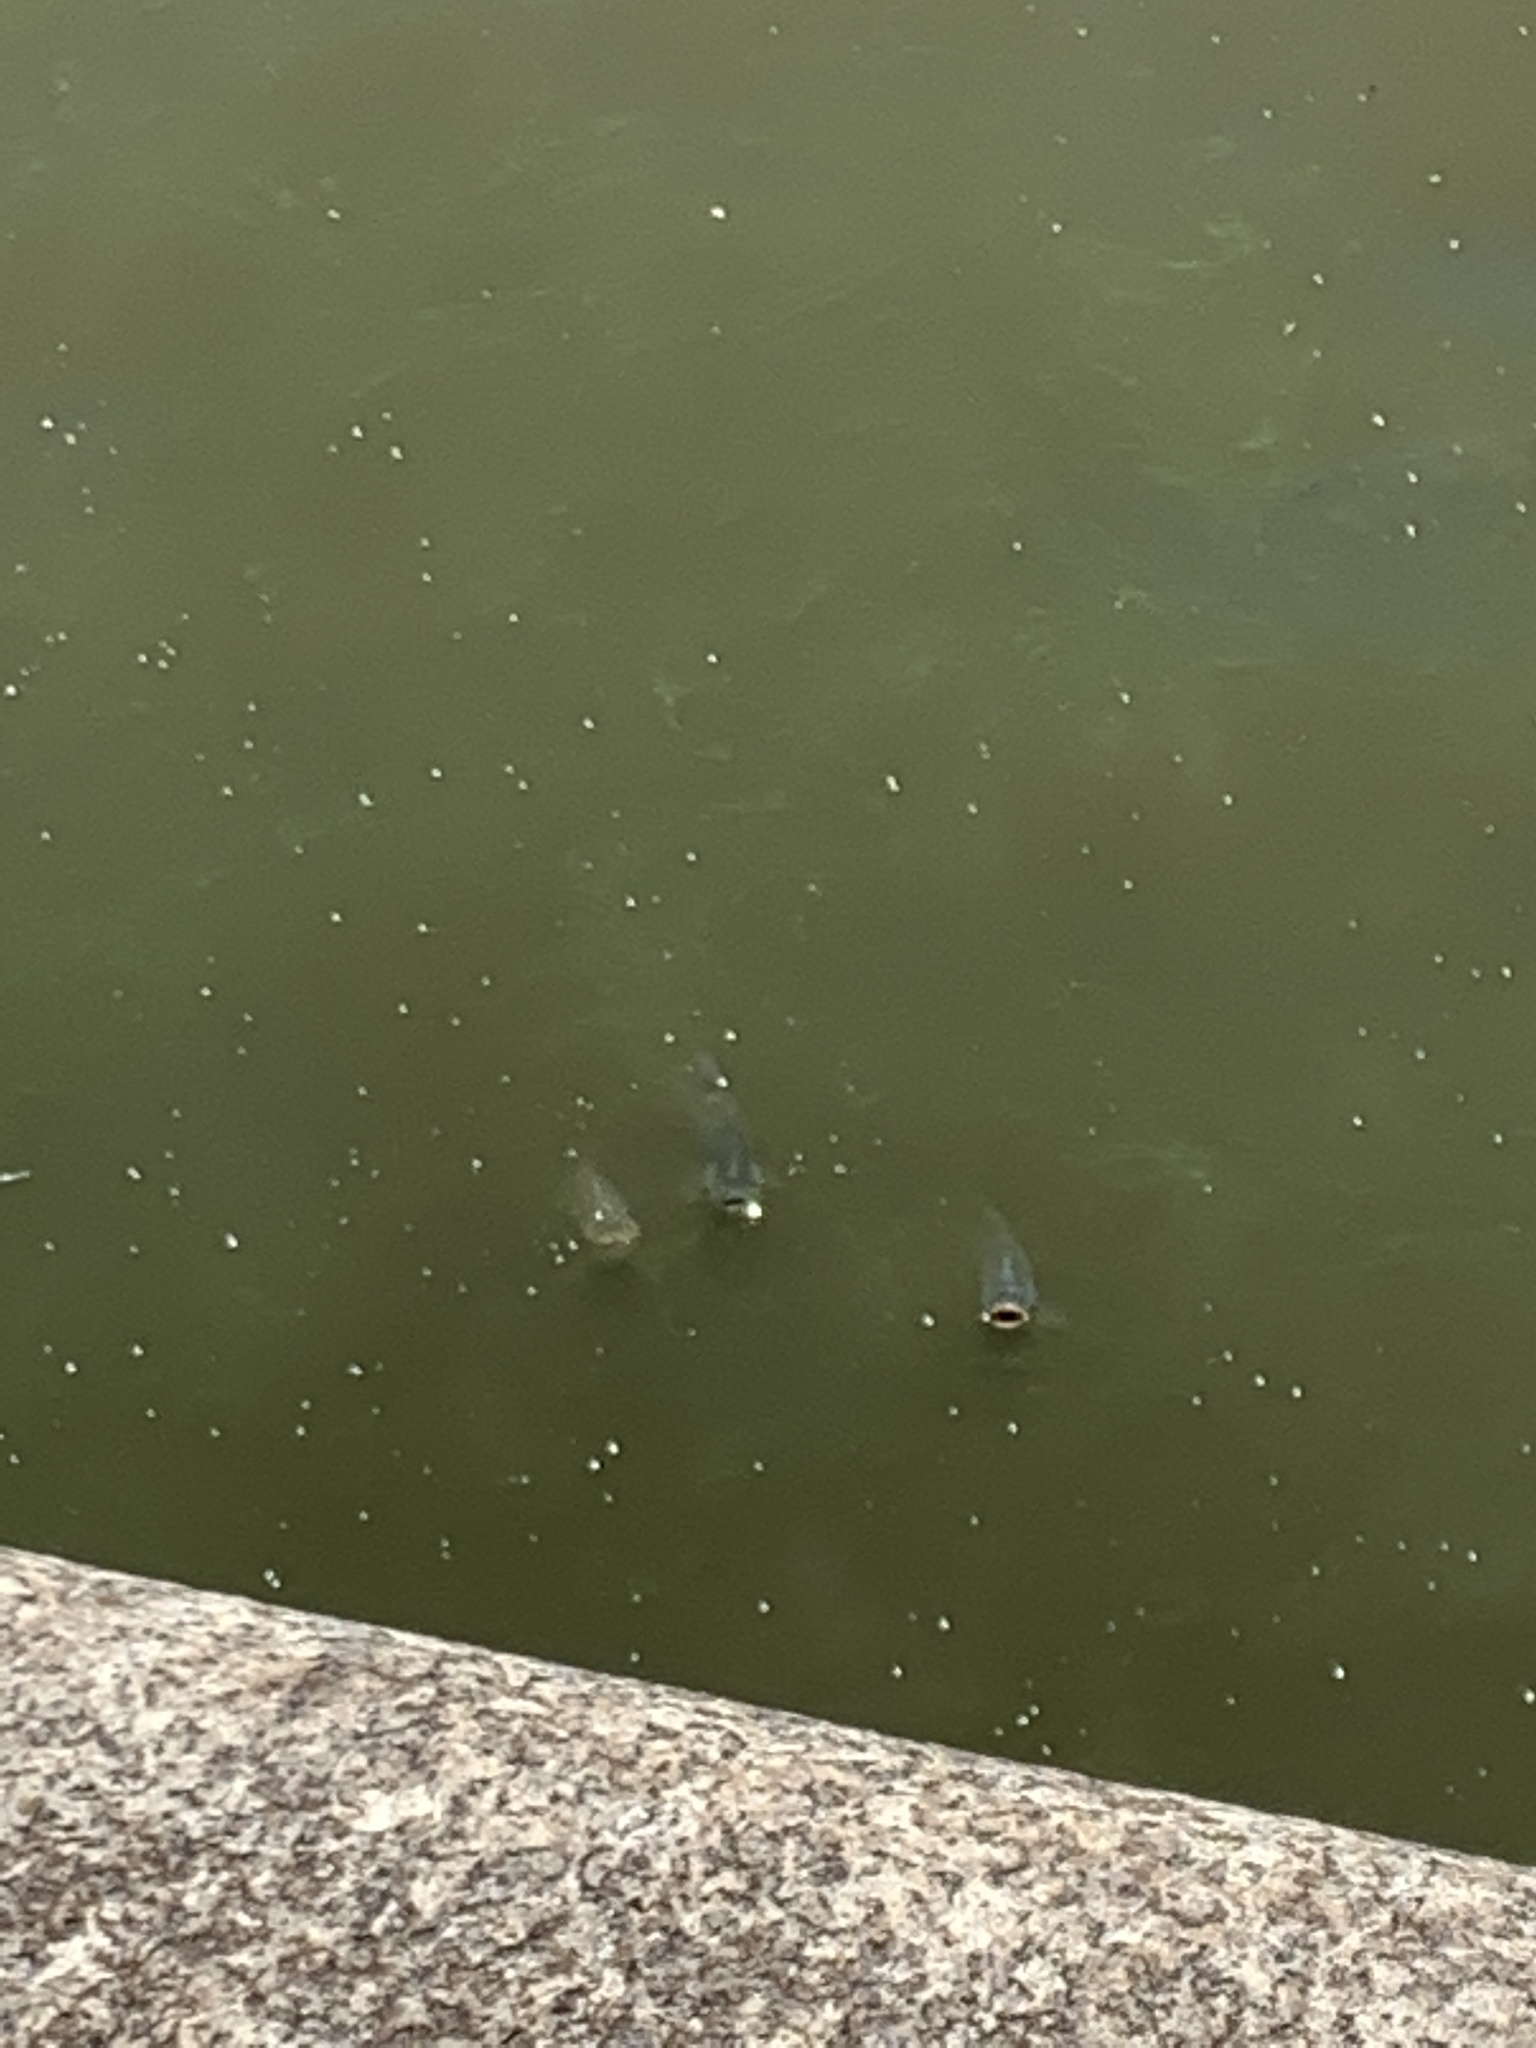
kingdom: Animalia
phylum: Chordata
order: Characiformes
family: Prochilodontidae
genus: Prochilodus
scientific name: Prochilodus lineatus
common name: Curimbata
